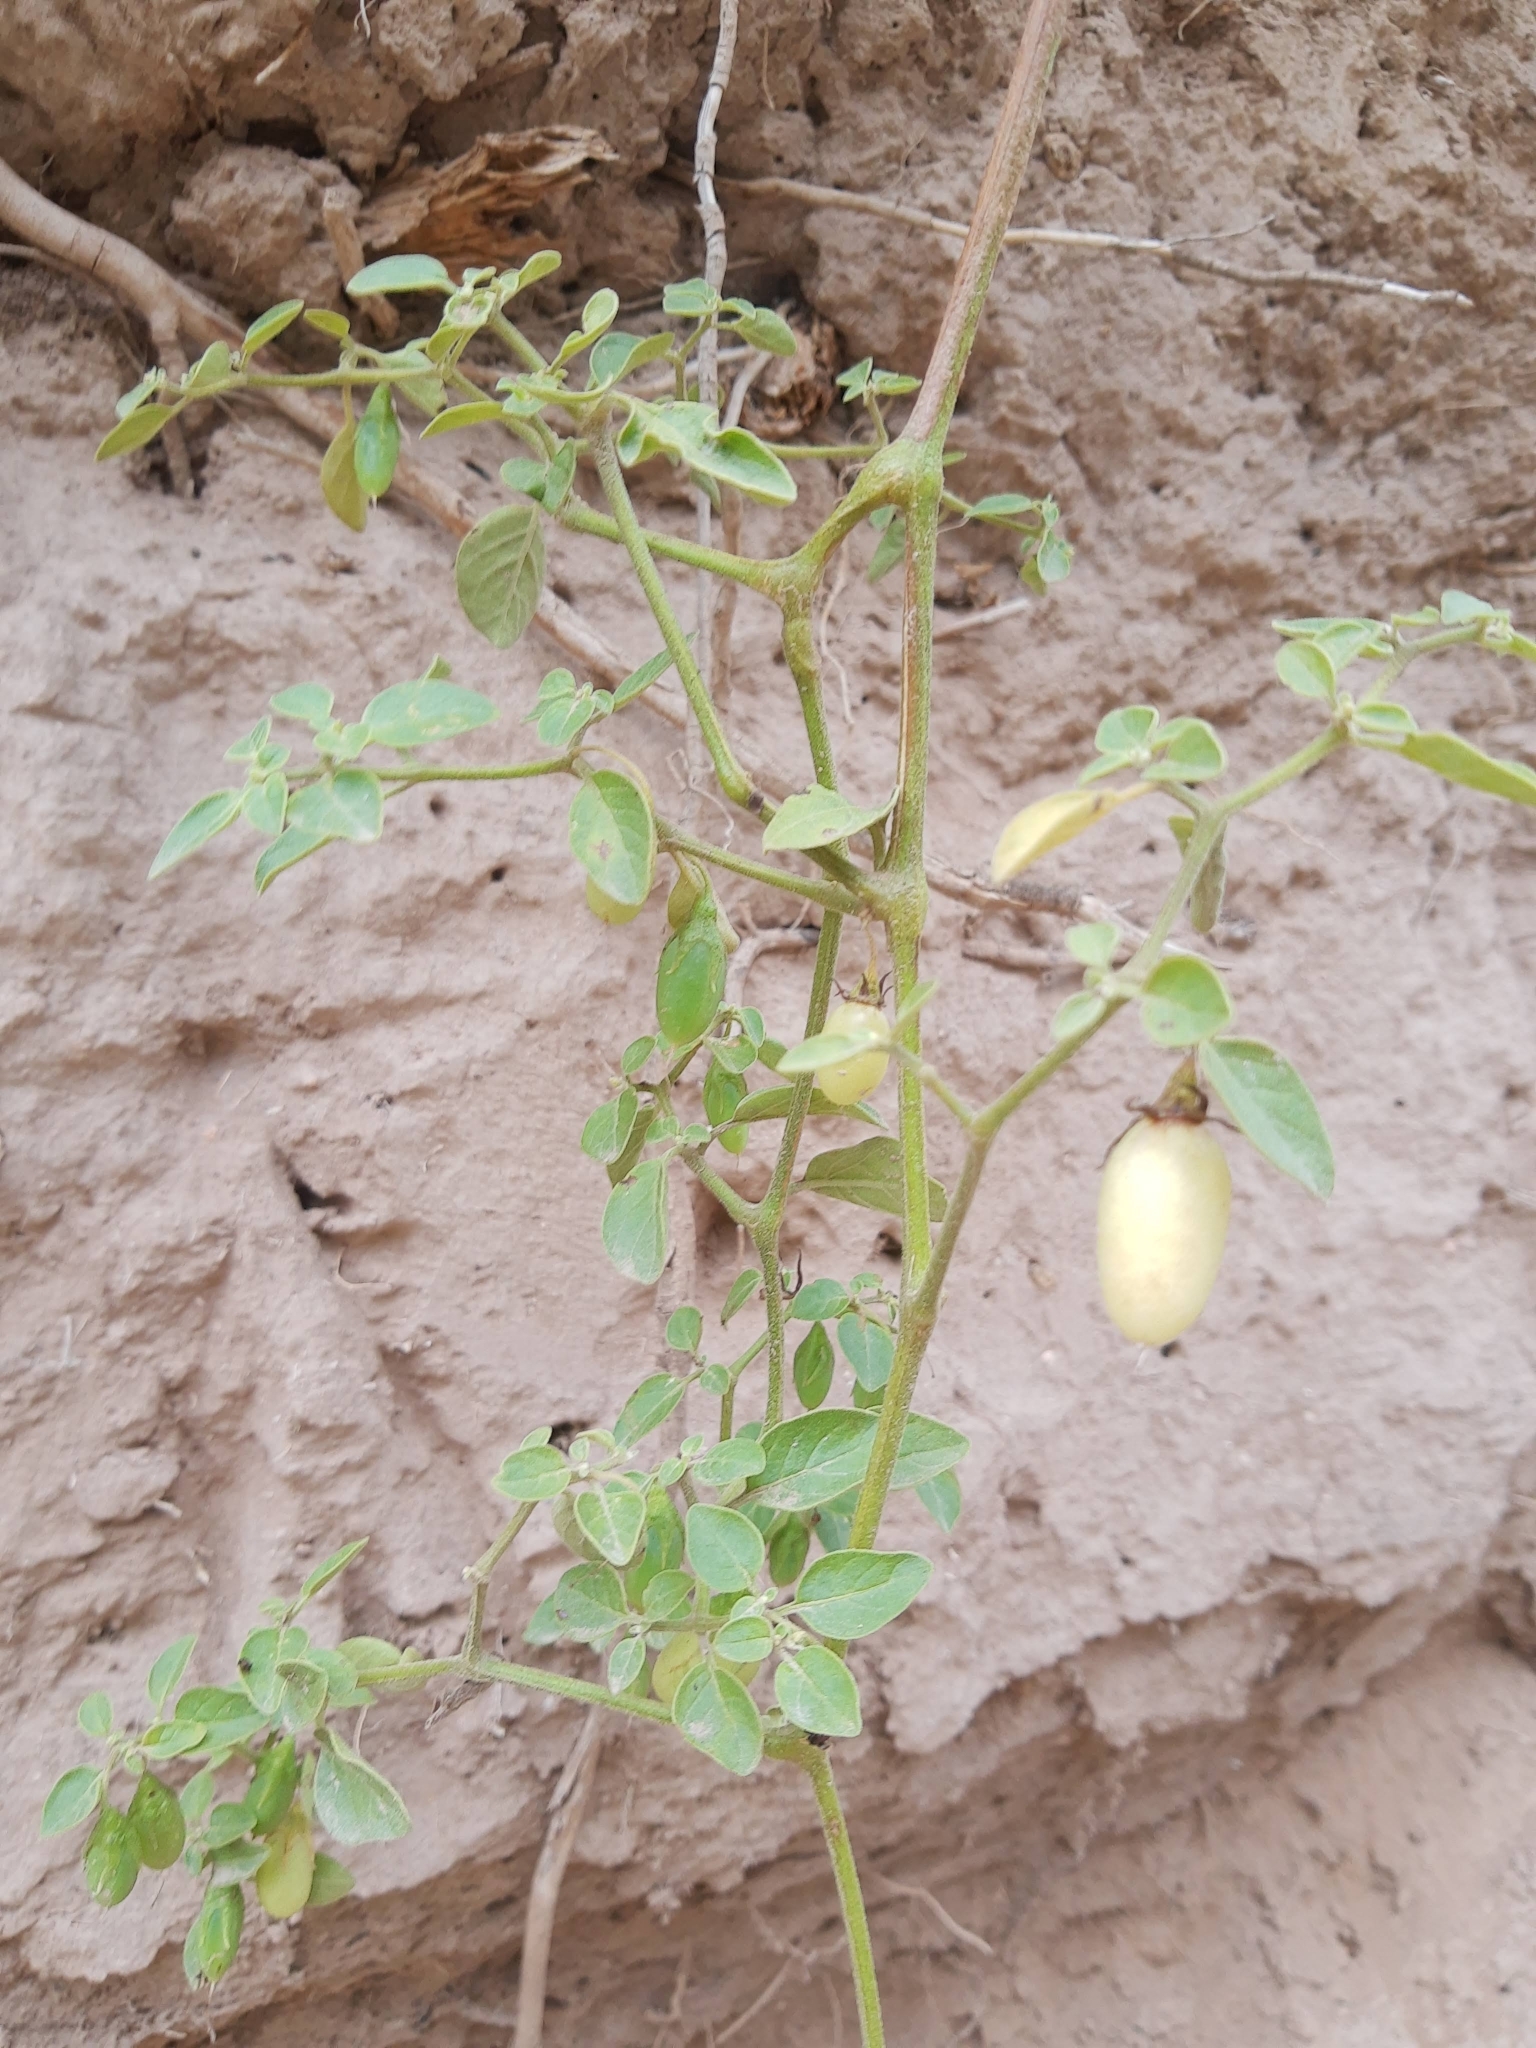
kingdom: Plantae
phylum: Tracheophyta
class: Magnoliopsida
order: Solanales
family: Solanaceae
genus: Salpichroa
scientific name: Salpichroa origanifolia
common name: Lily-of-the-valley-vine
